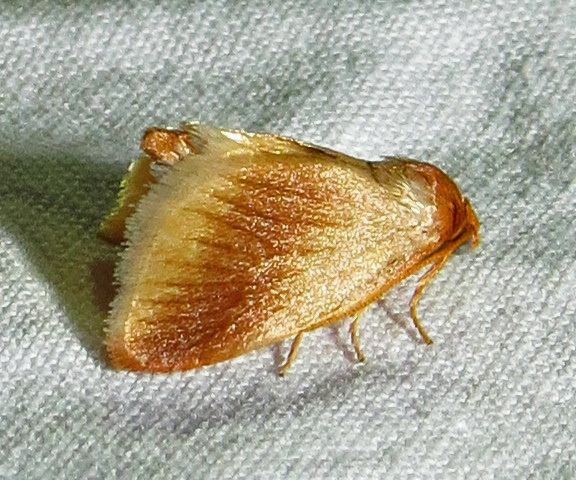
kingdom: Animalia
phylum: Arthropoda
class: Insecta
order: Lepidoptera
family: Limacodidae
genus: Tortricidia
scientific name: Tortricidia testacea
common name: Early button slug moth
